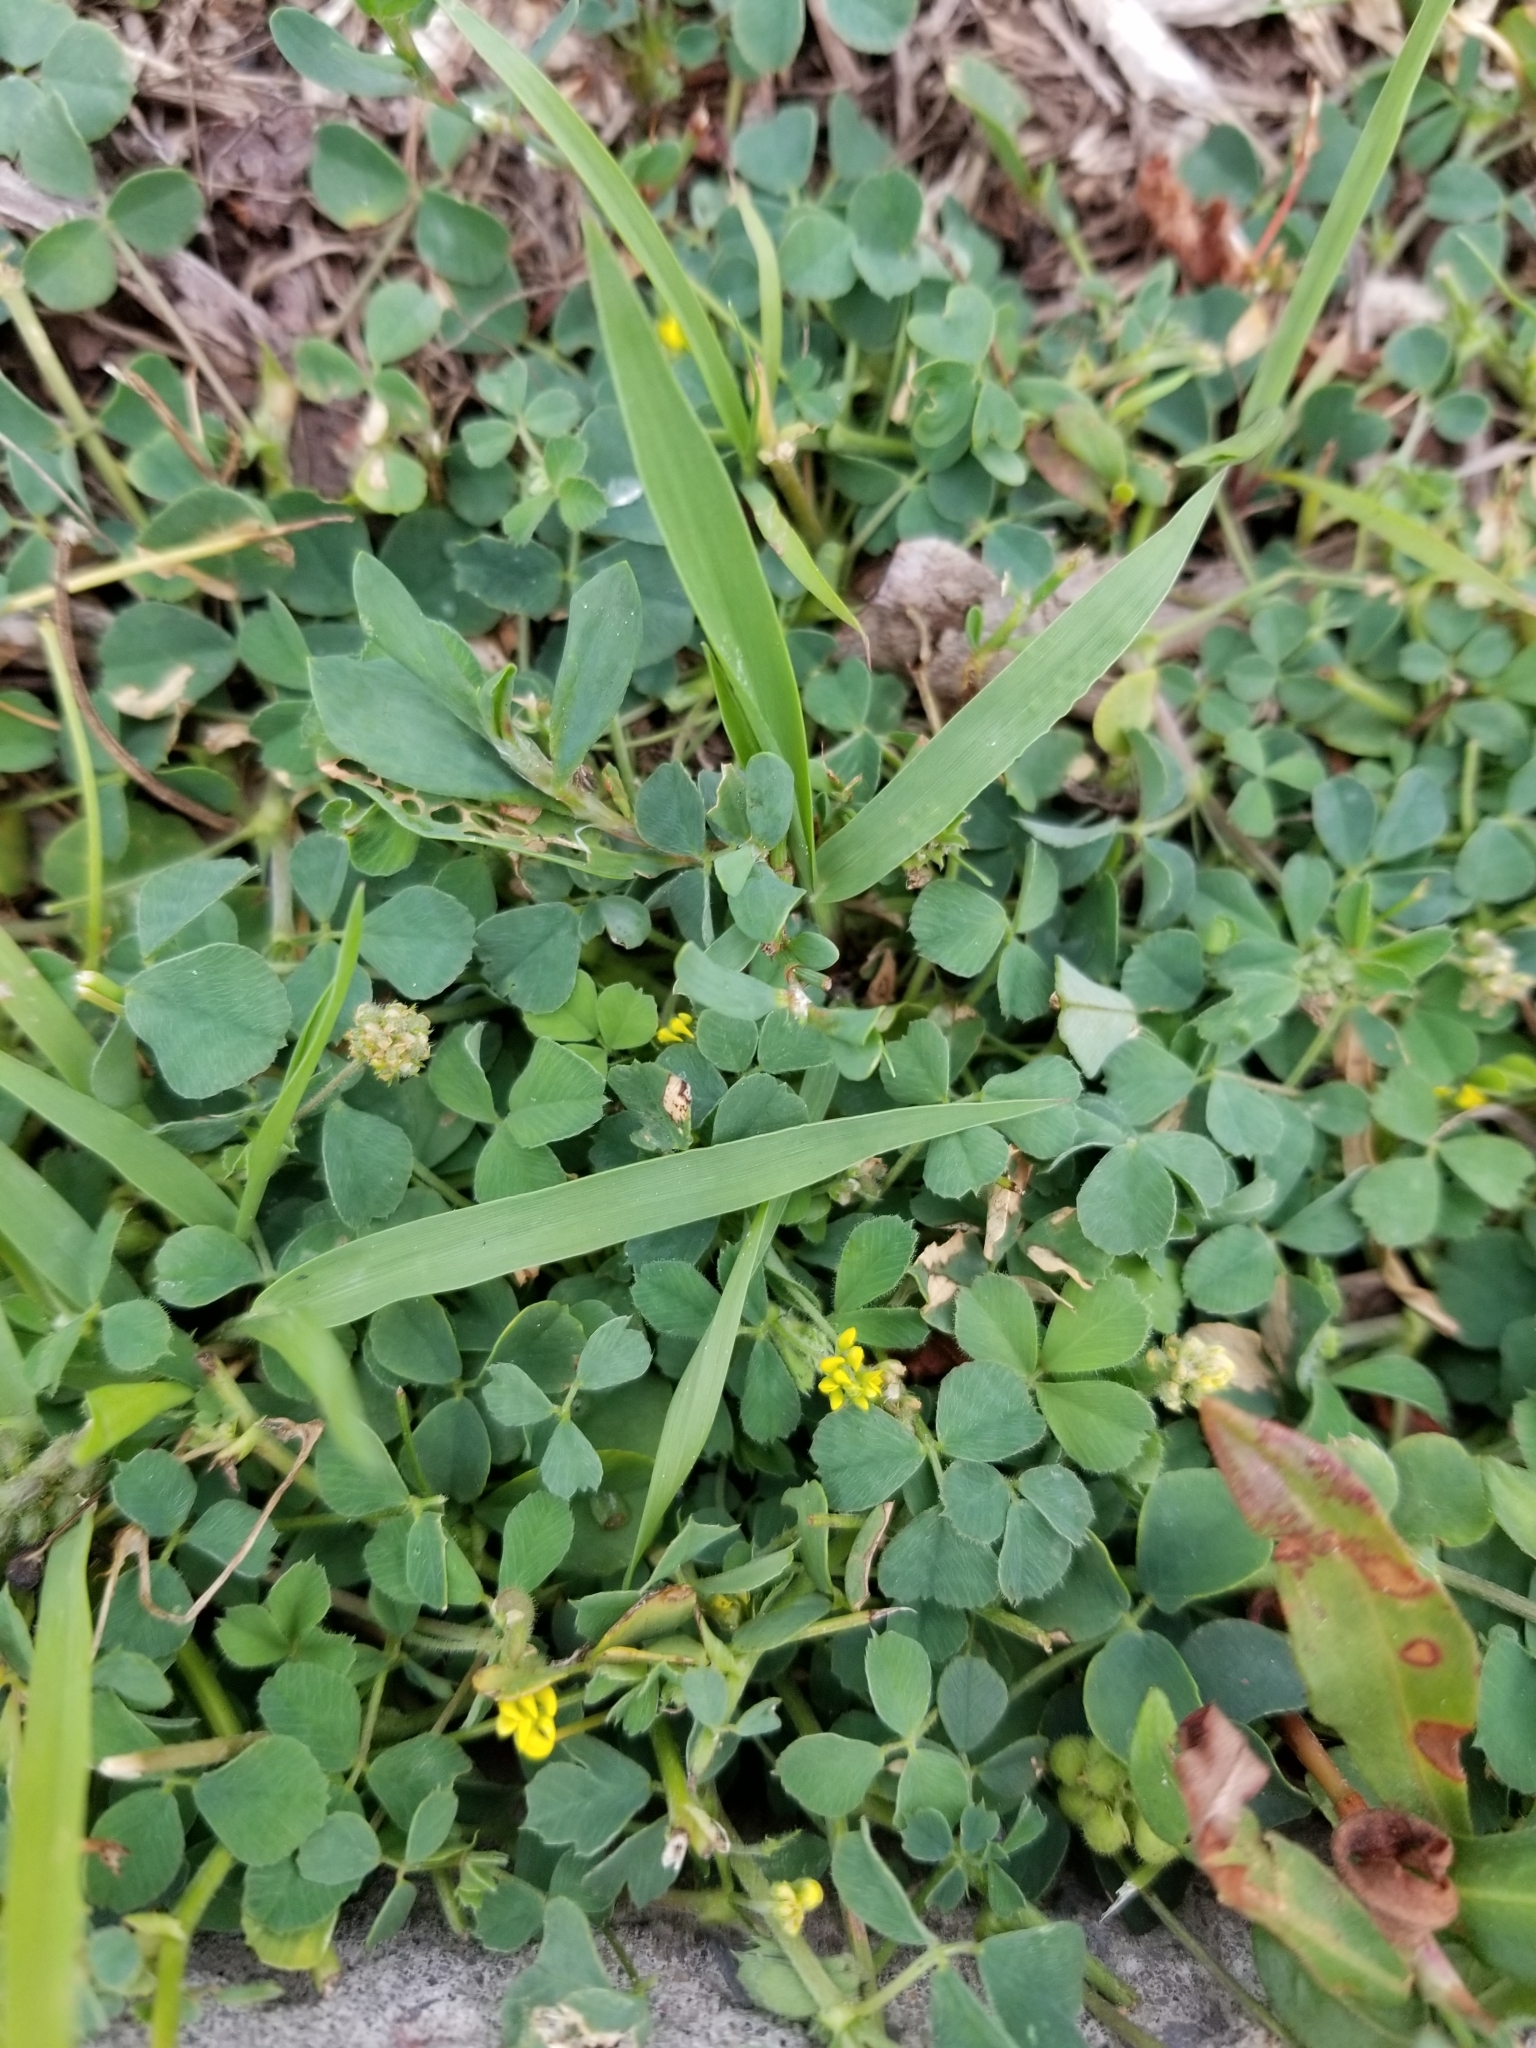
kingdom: Plantae
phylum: Tracheophyta
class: Magnoliopsida
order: Fabales
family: Fabaceae
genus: Medicago
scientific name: Medicago lupulina
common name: Black medick
